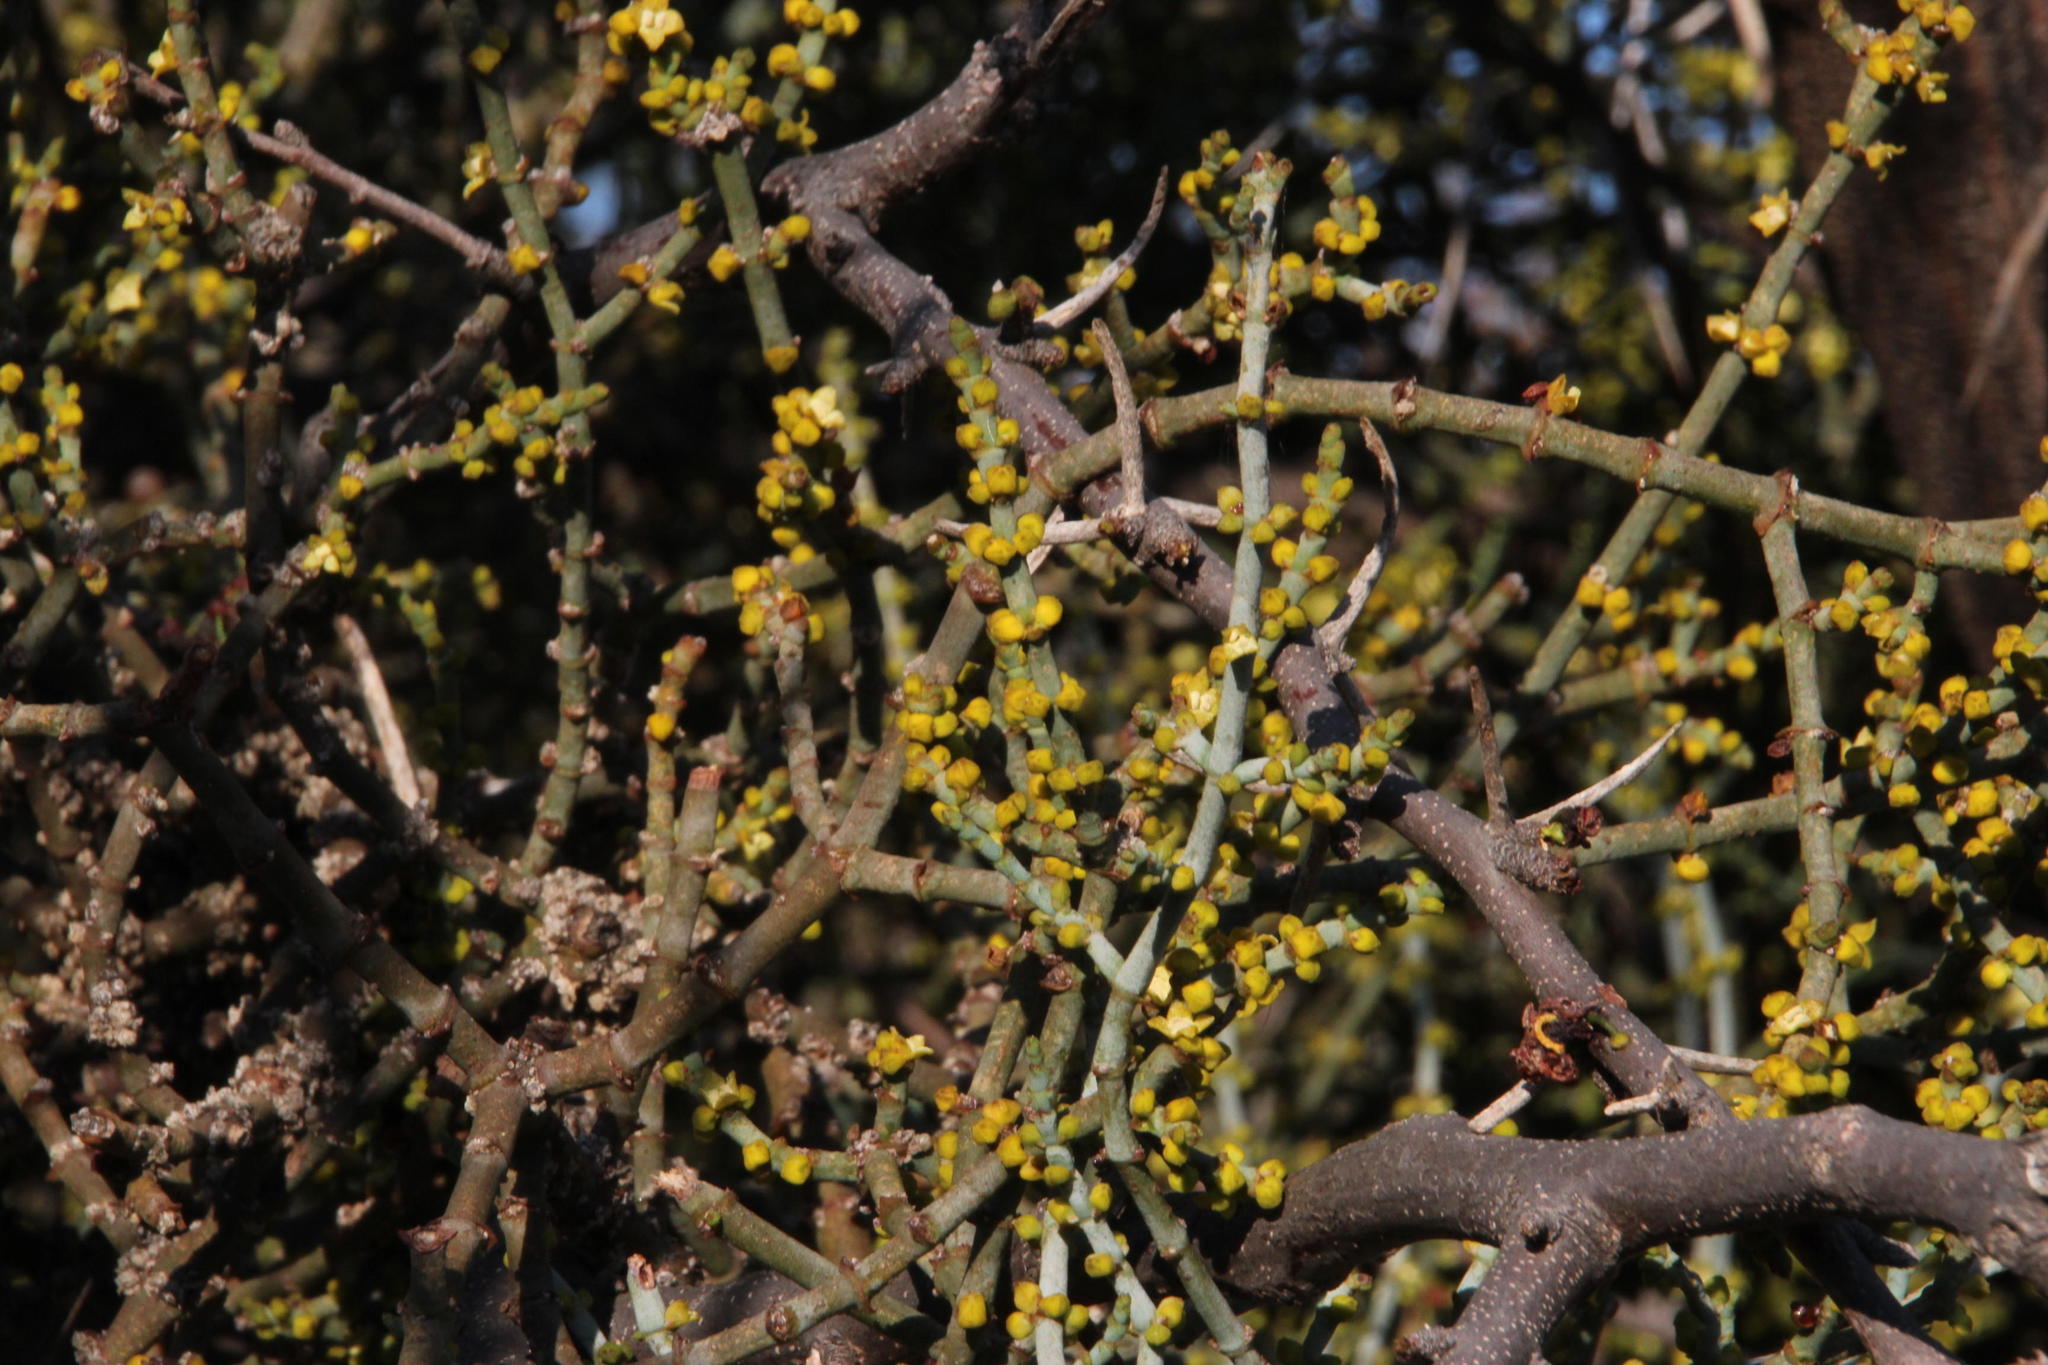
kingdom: Plantae
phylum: Tracheophyta
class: Magnoliopsida
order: Santalales
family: Viscaceae
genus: Viscum
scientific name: Viscum capense
